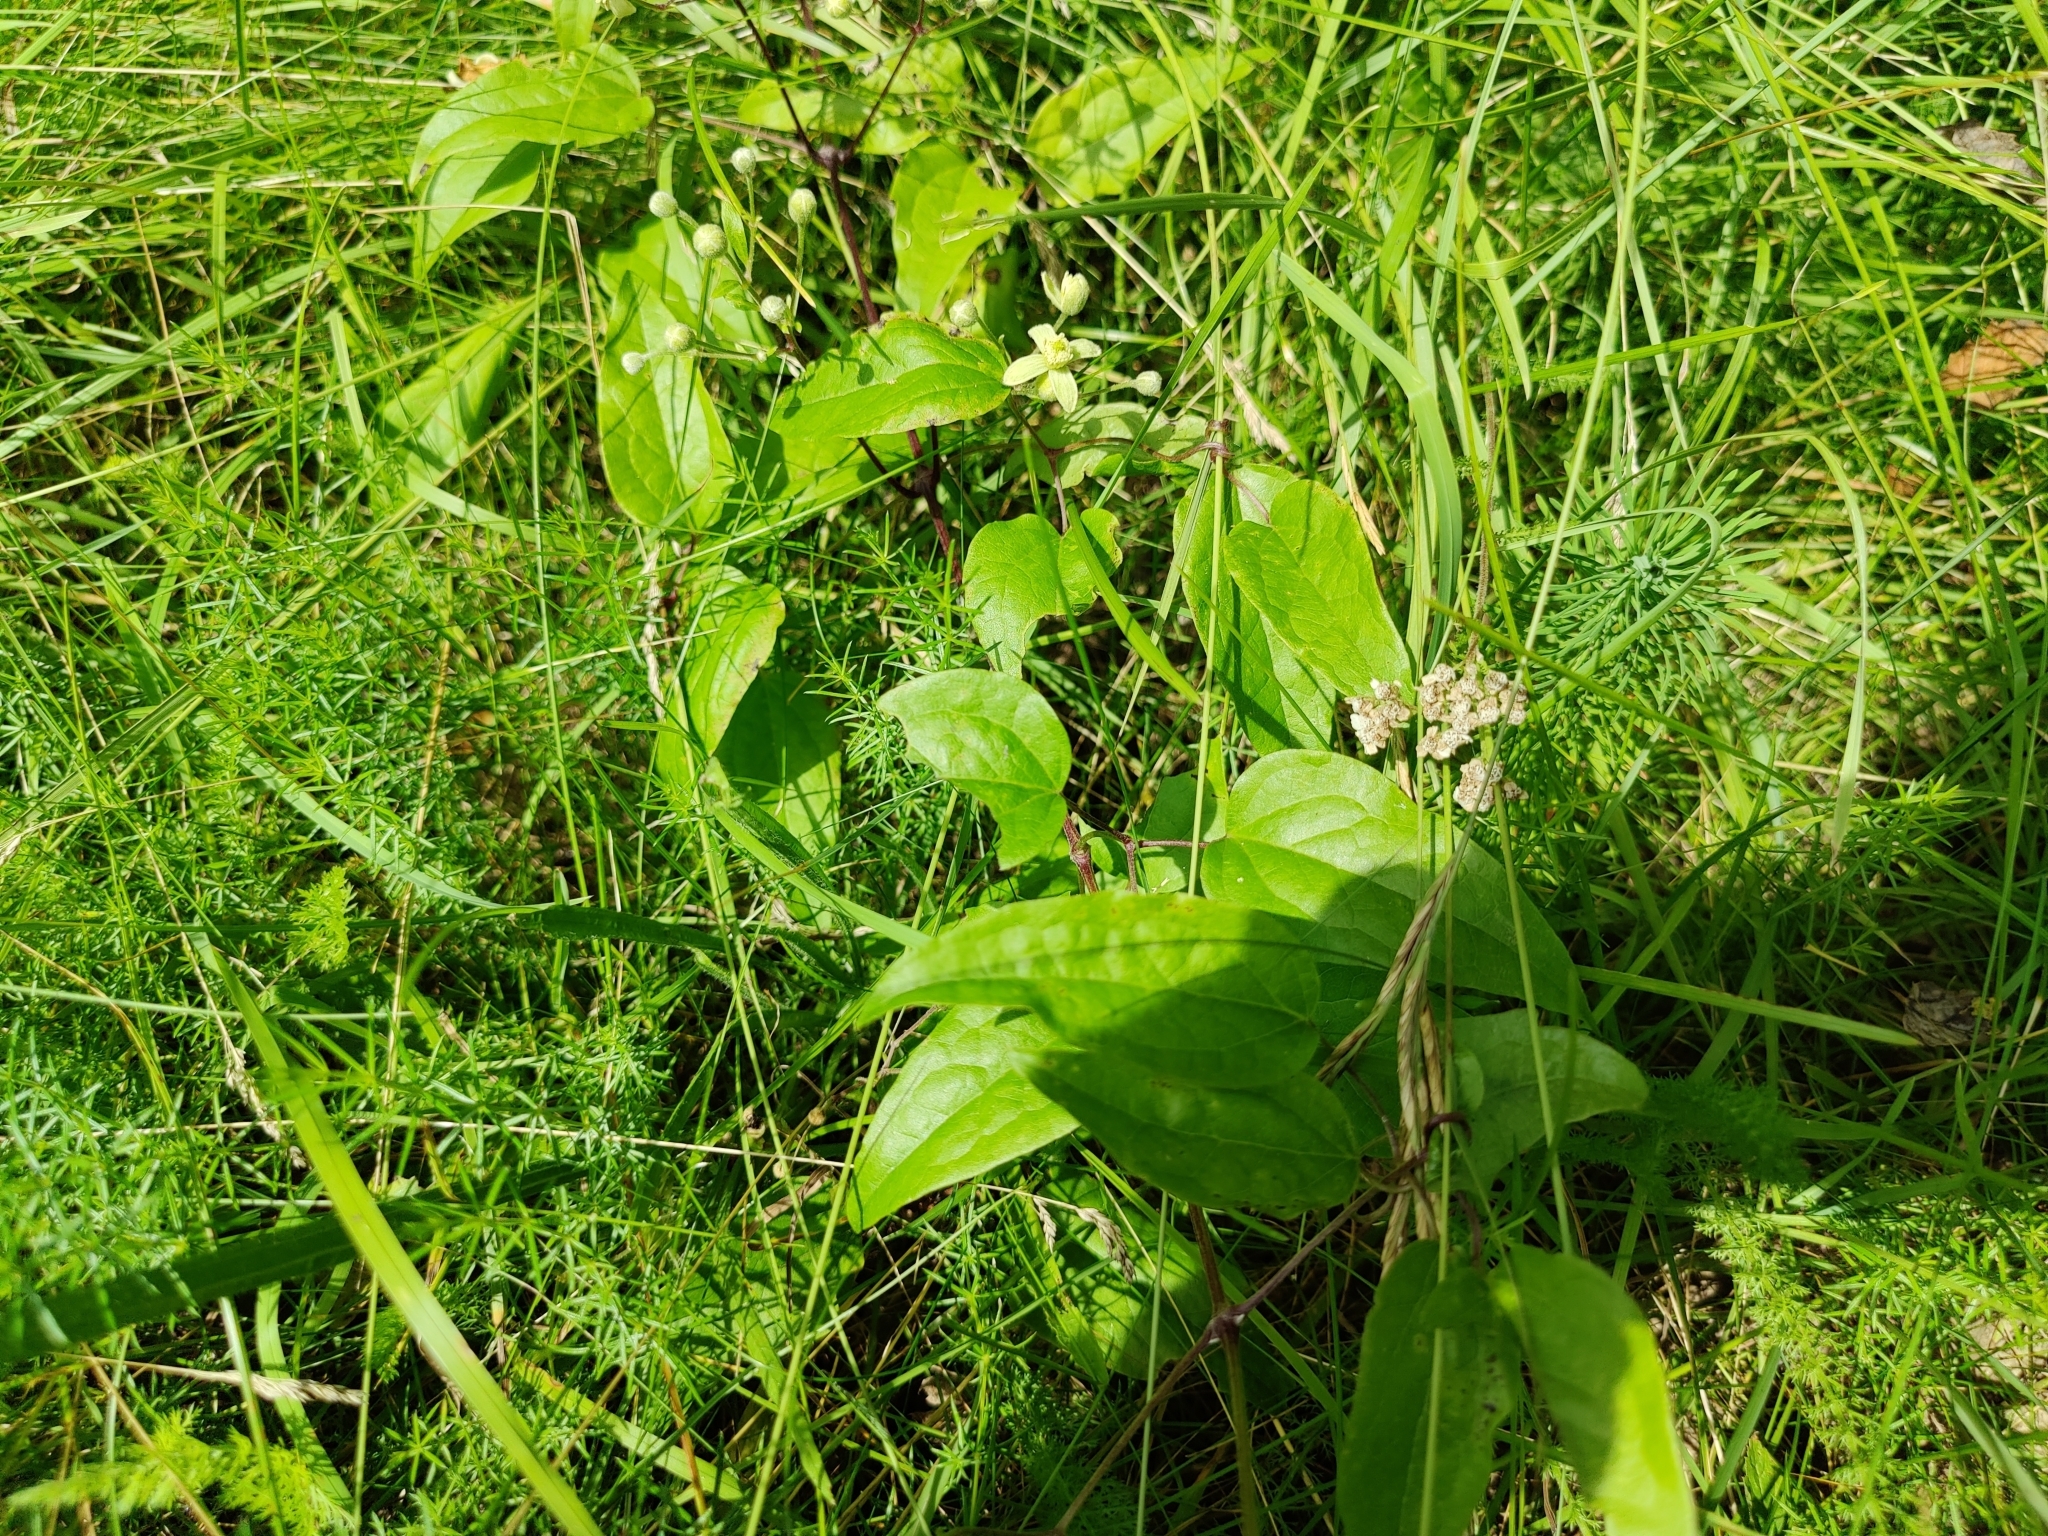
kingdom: Plantae
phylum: Tracheophyta
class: Magnoliopsida
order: Ranunculales
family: Ranunculaceae
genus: Clematis
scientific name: Clematis vitalba
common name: Evergreen clematis
